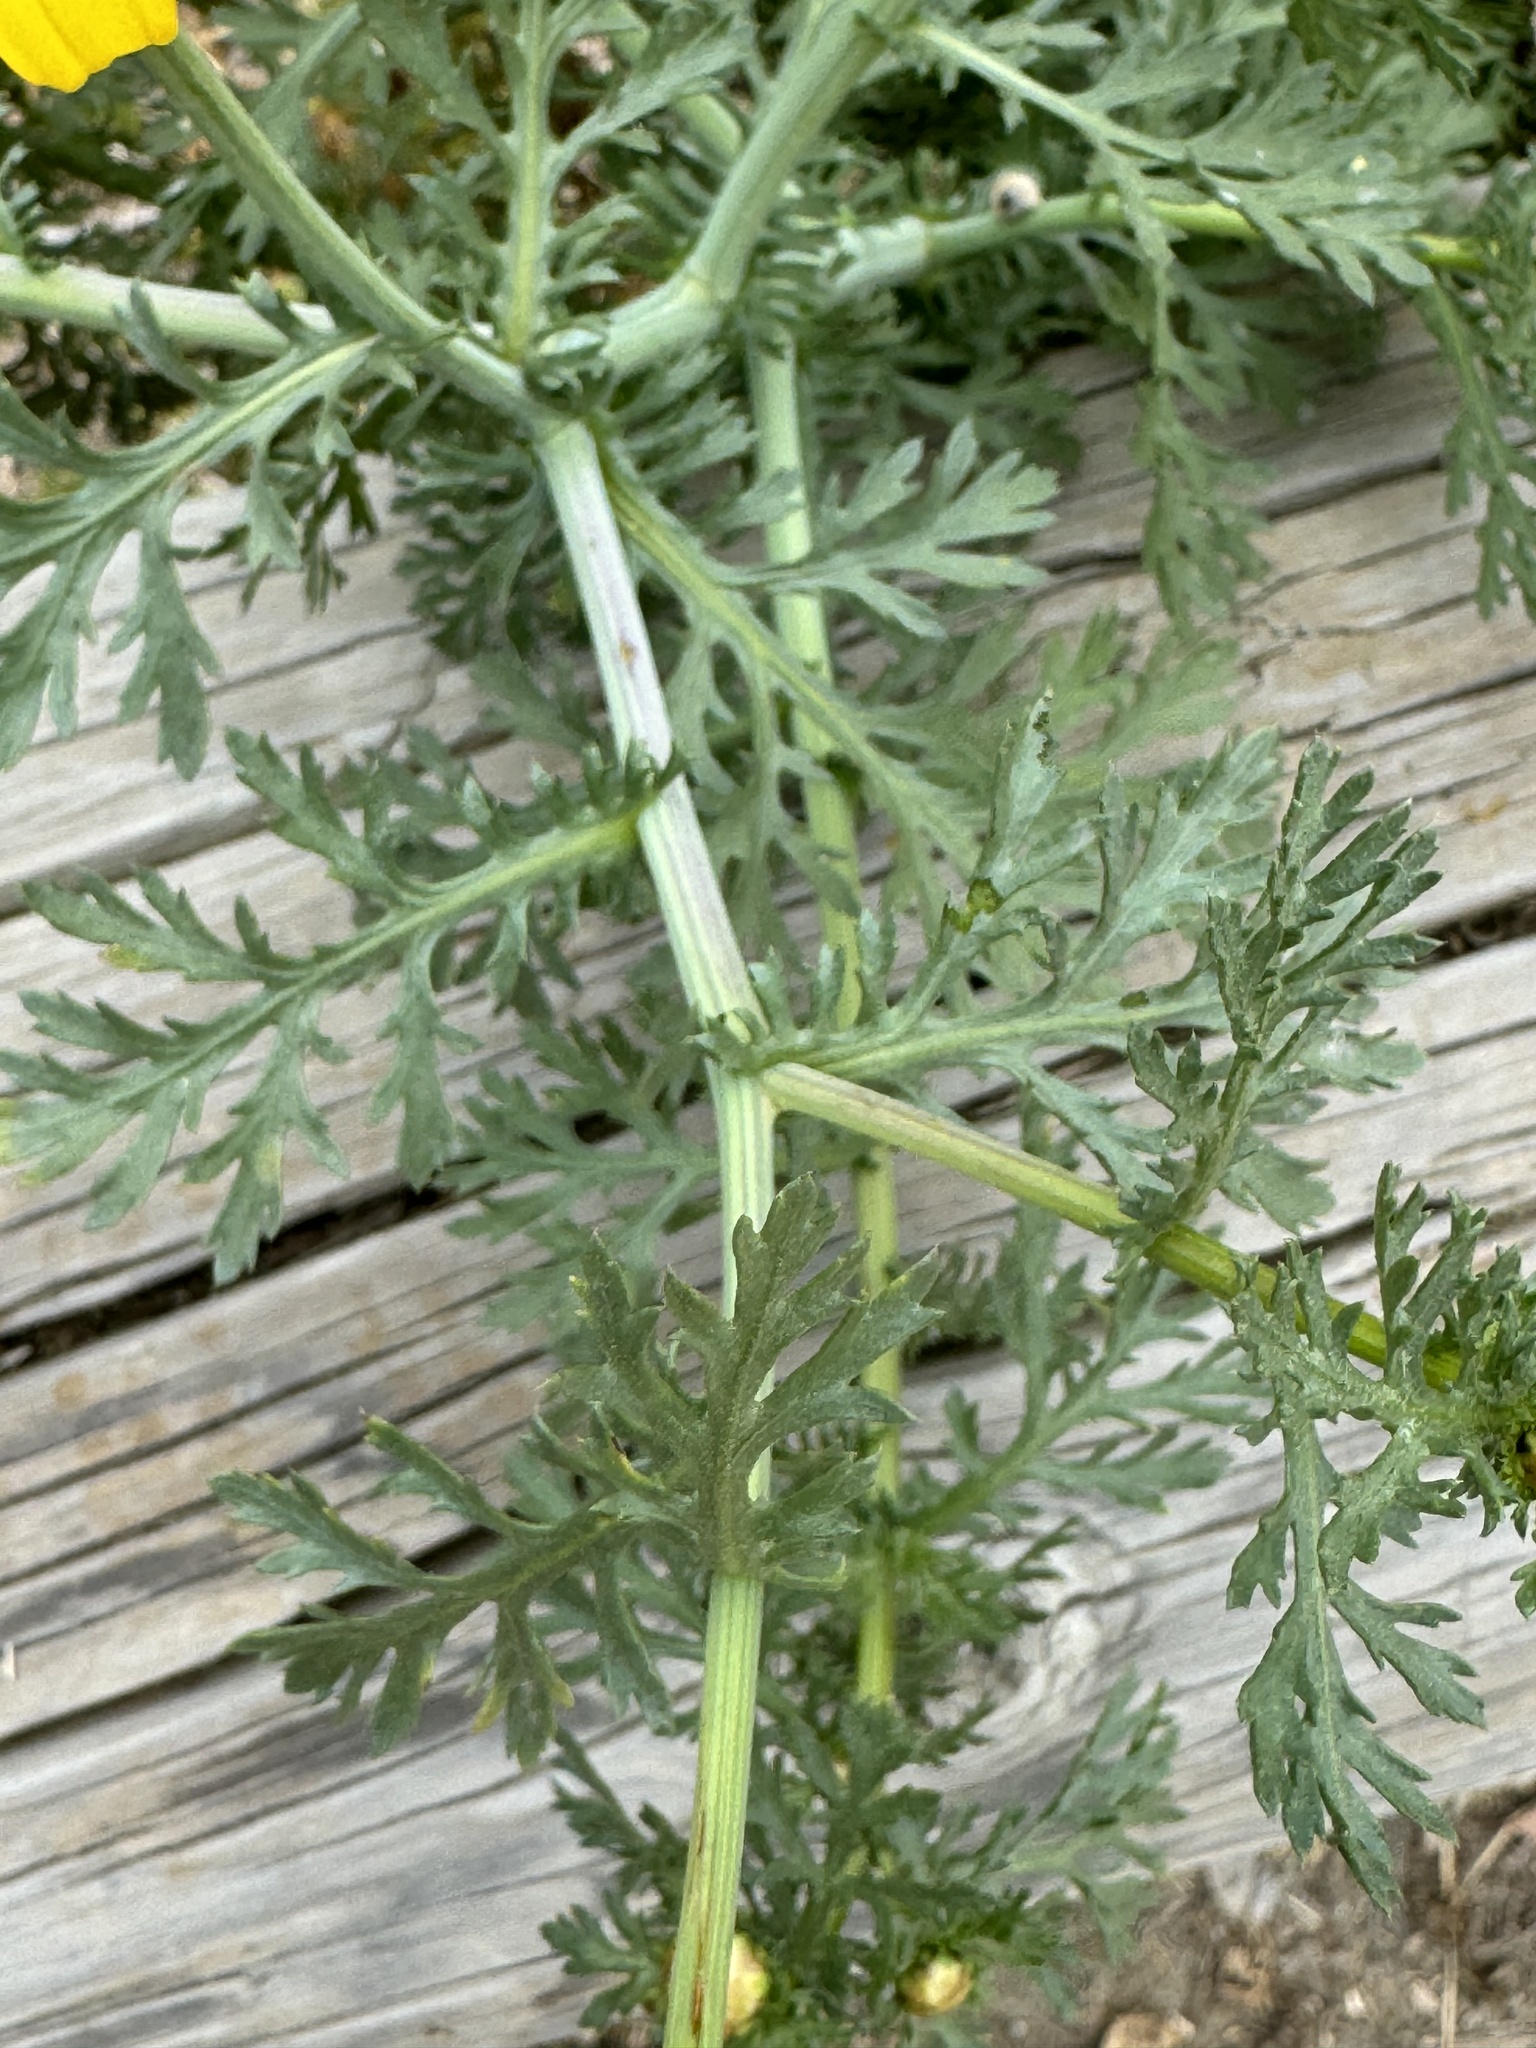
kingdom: Plantae
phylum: Tracheophyta
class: Magnoliopsida
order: Asterales
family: Asteraceae
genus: Glebionis
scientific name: Glebionis coronaria
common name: Crowndaisy
